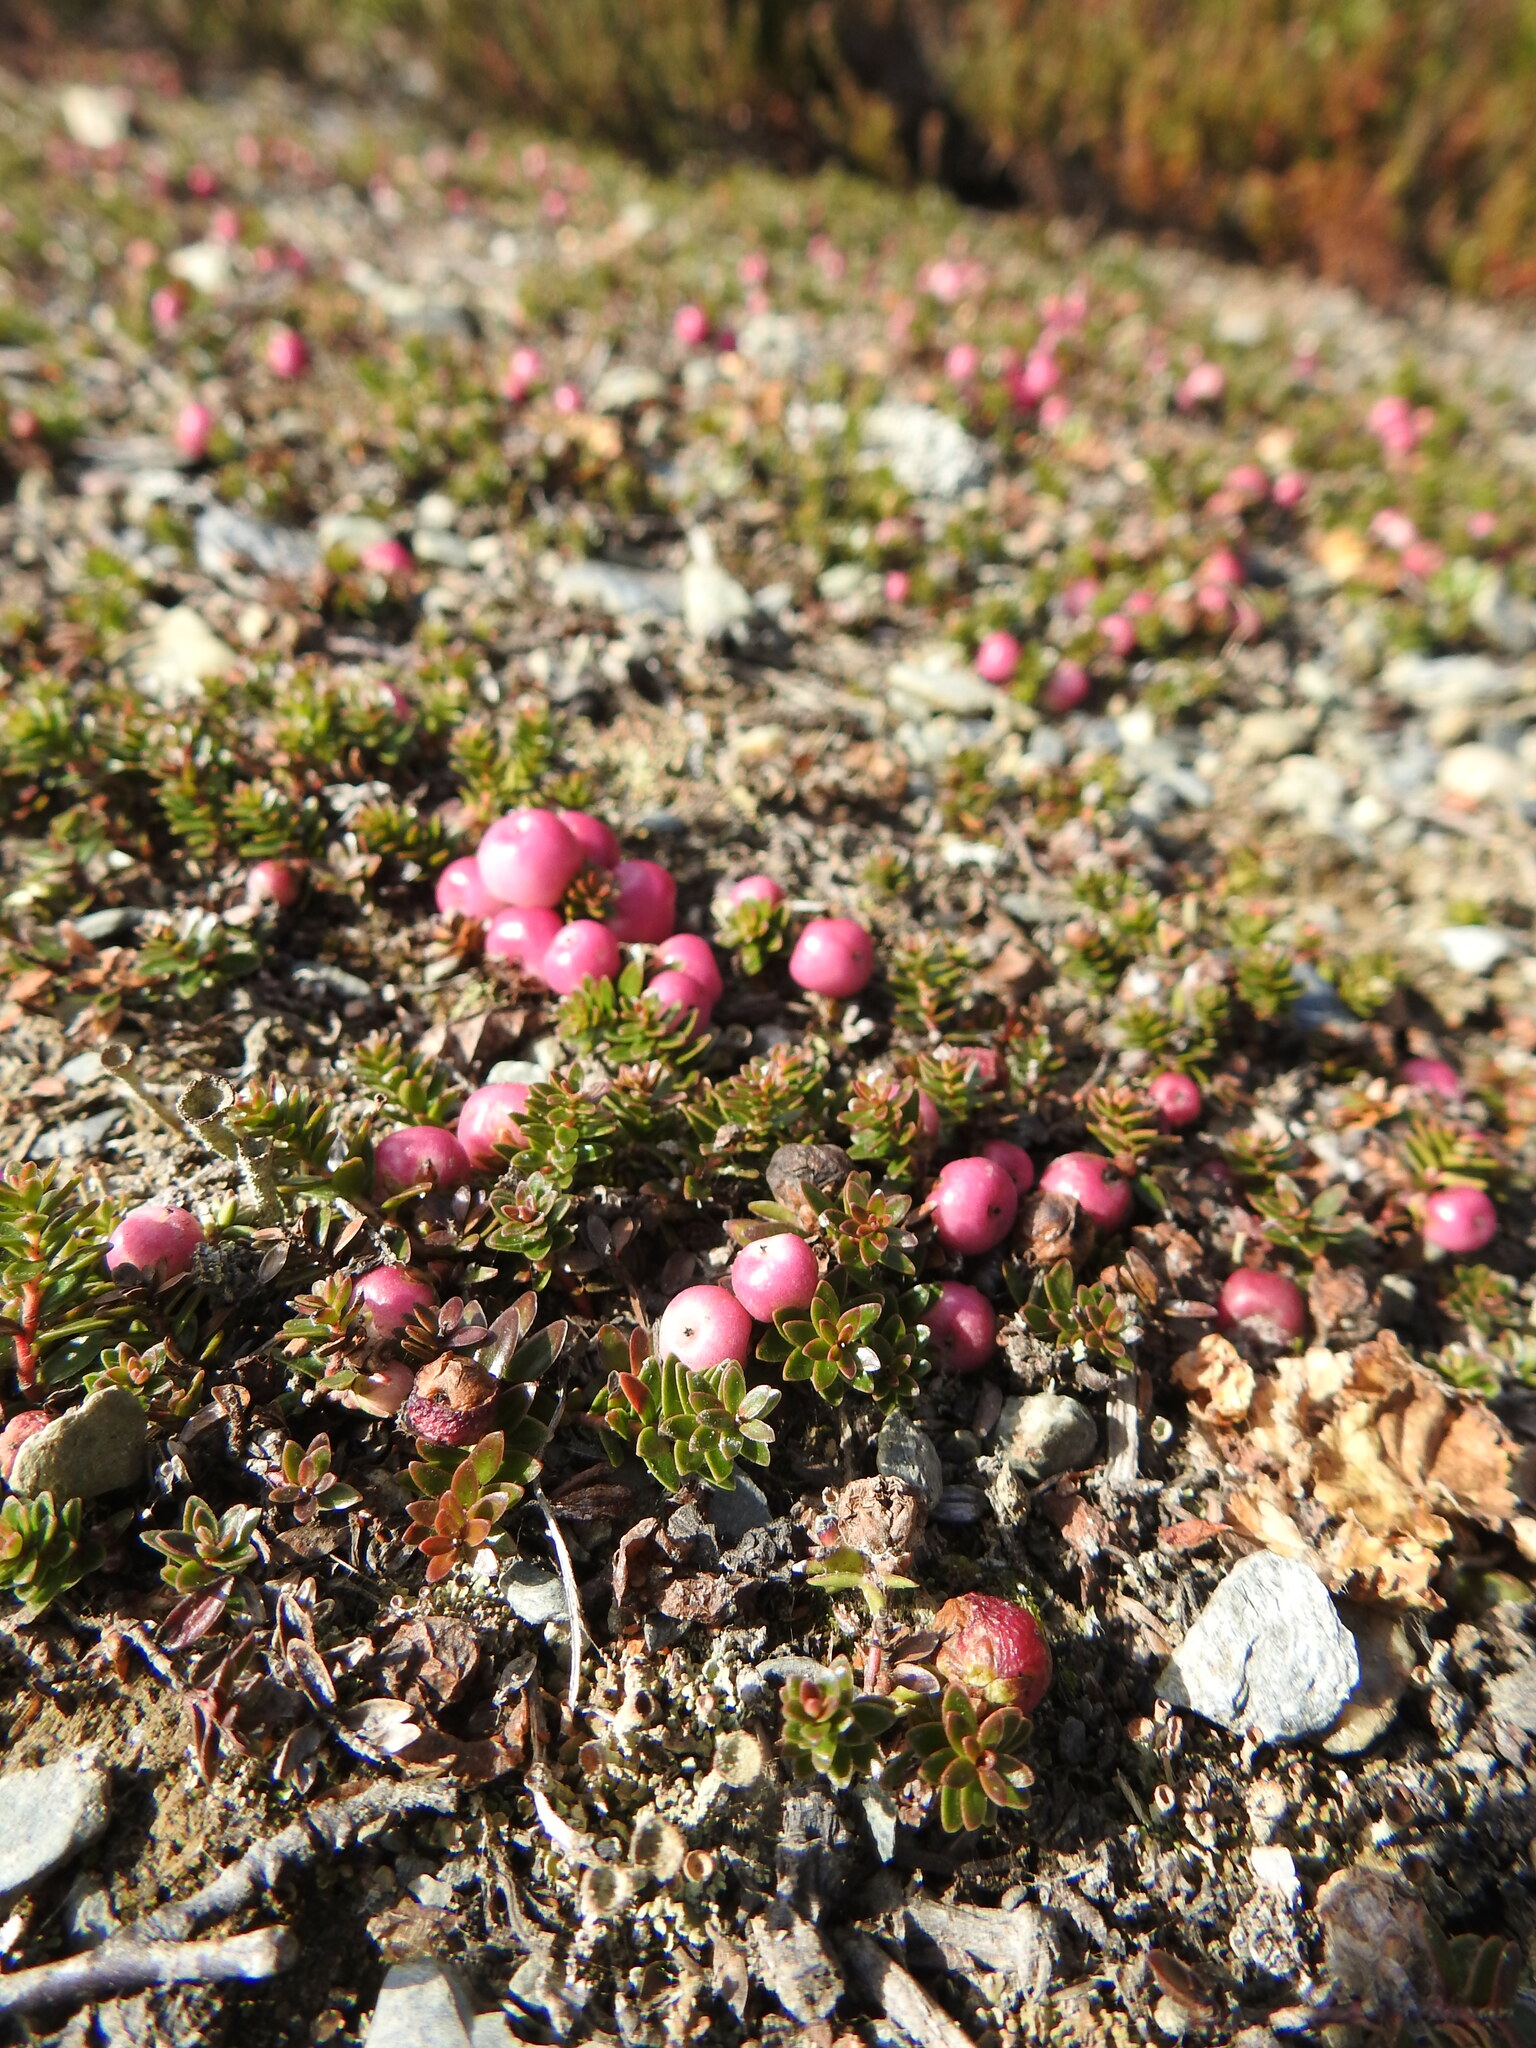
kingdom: Plantae
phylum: Tracheophyta
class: Magnoliopsida
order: Ericales
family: Ericaceae
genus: Gaultheria
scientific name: Gaultheria pumila
